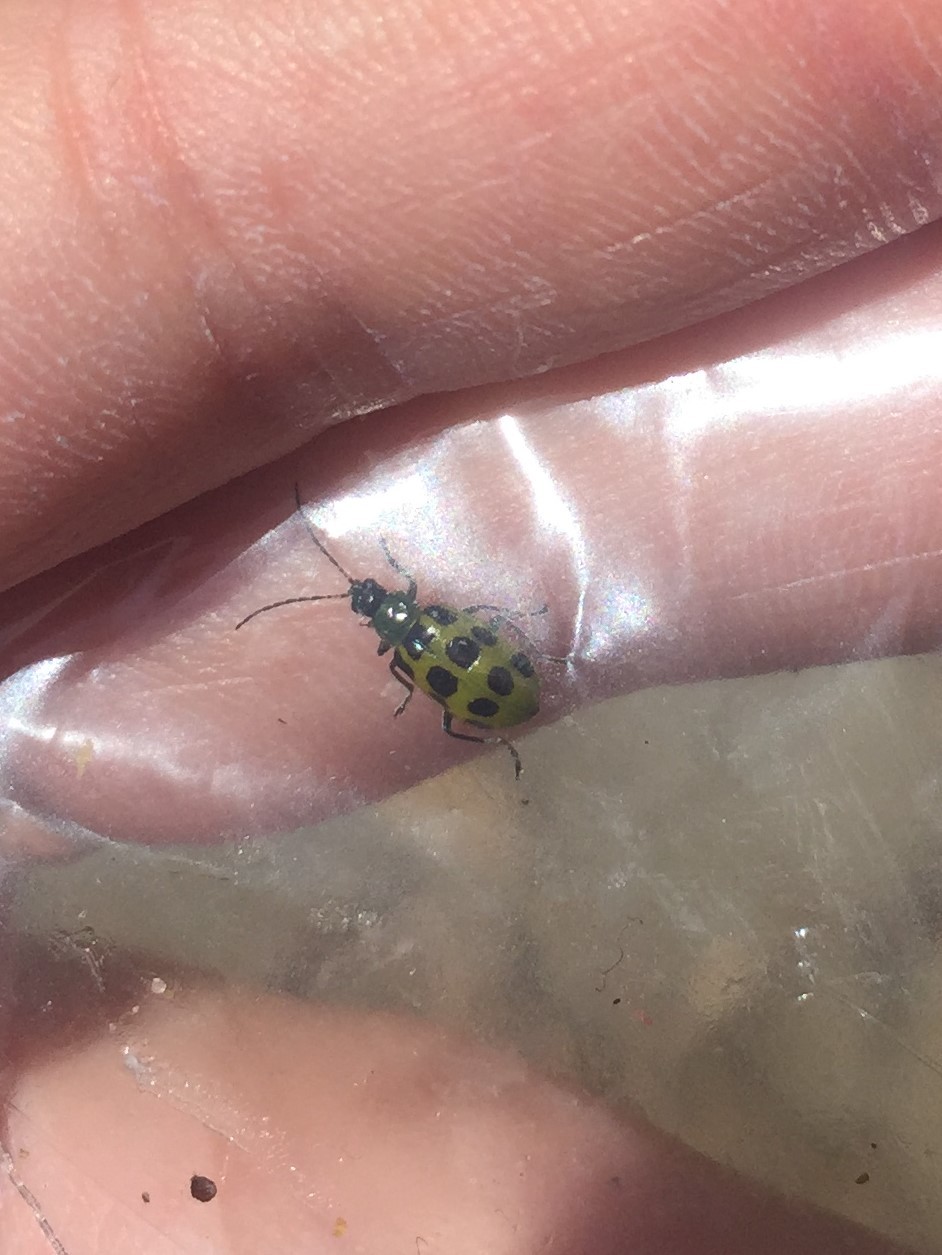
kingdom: Animalia
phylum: Arthropoda
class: Insecta
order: Coleoptera
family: Chrysomelidae
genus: Diabrotica
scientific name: Diabrotica undecimpunctata
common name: Spotted cucumber beetle
